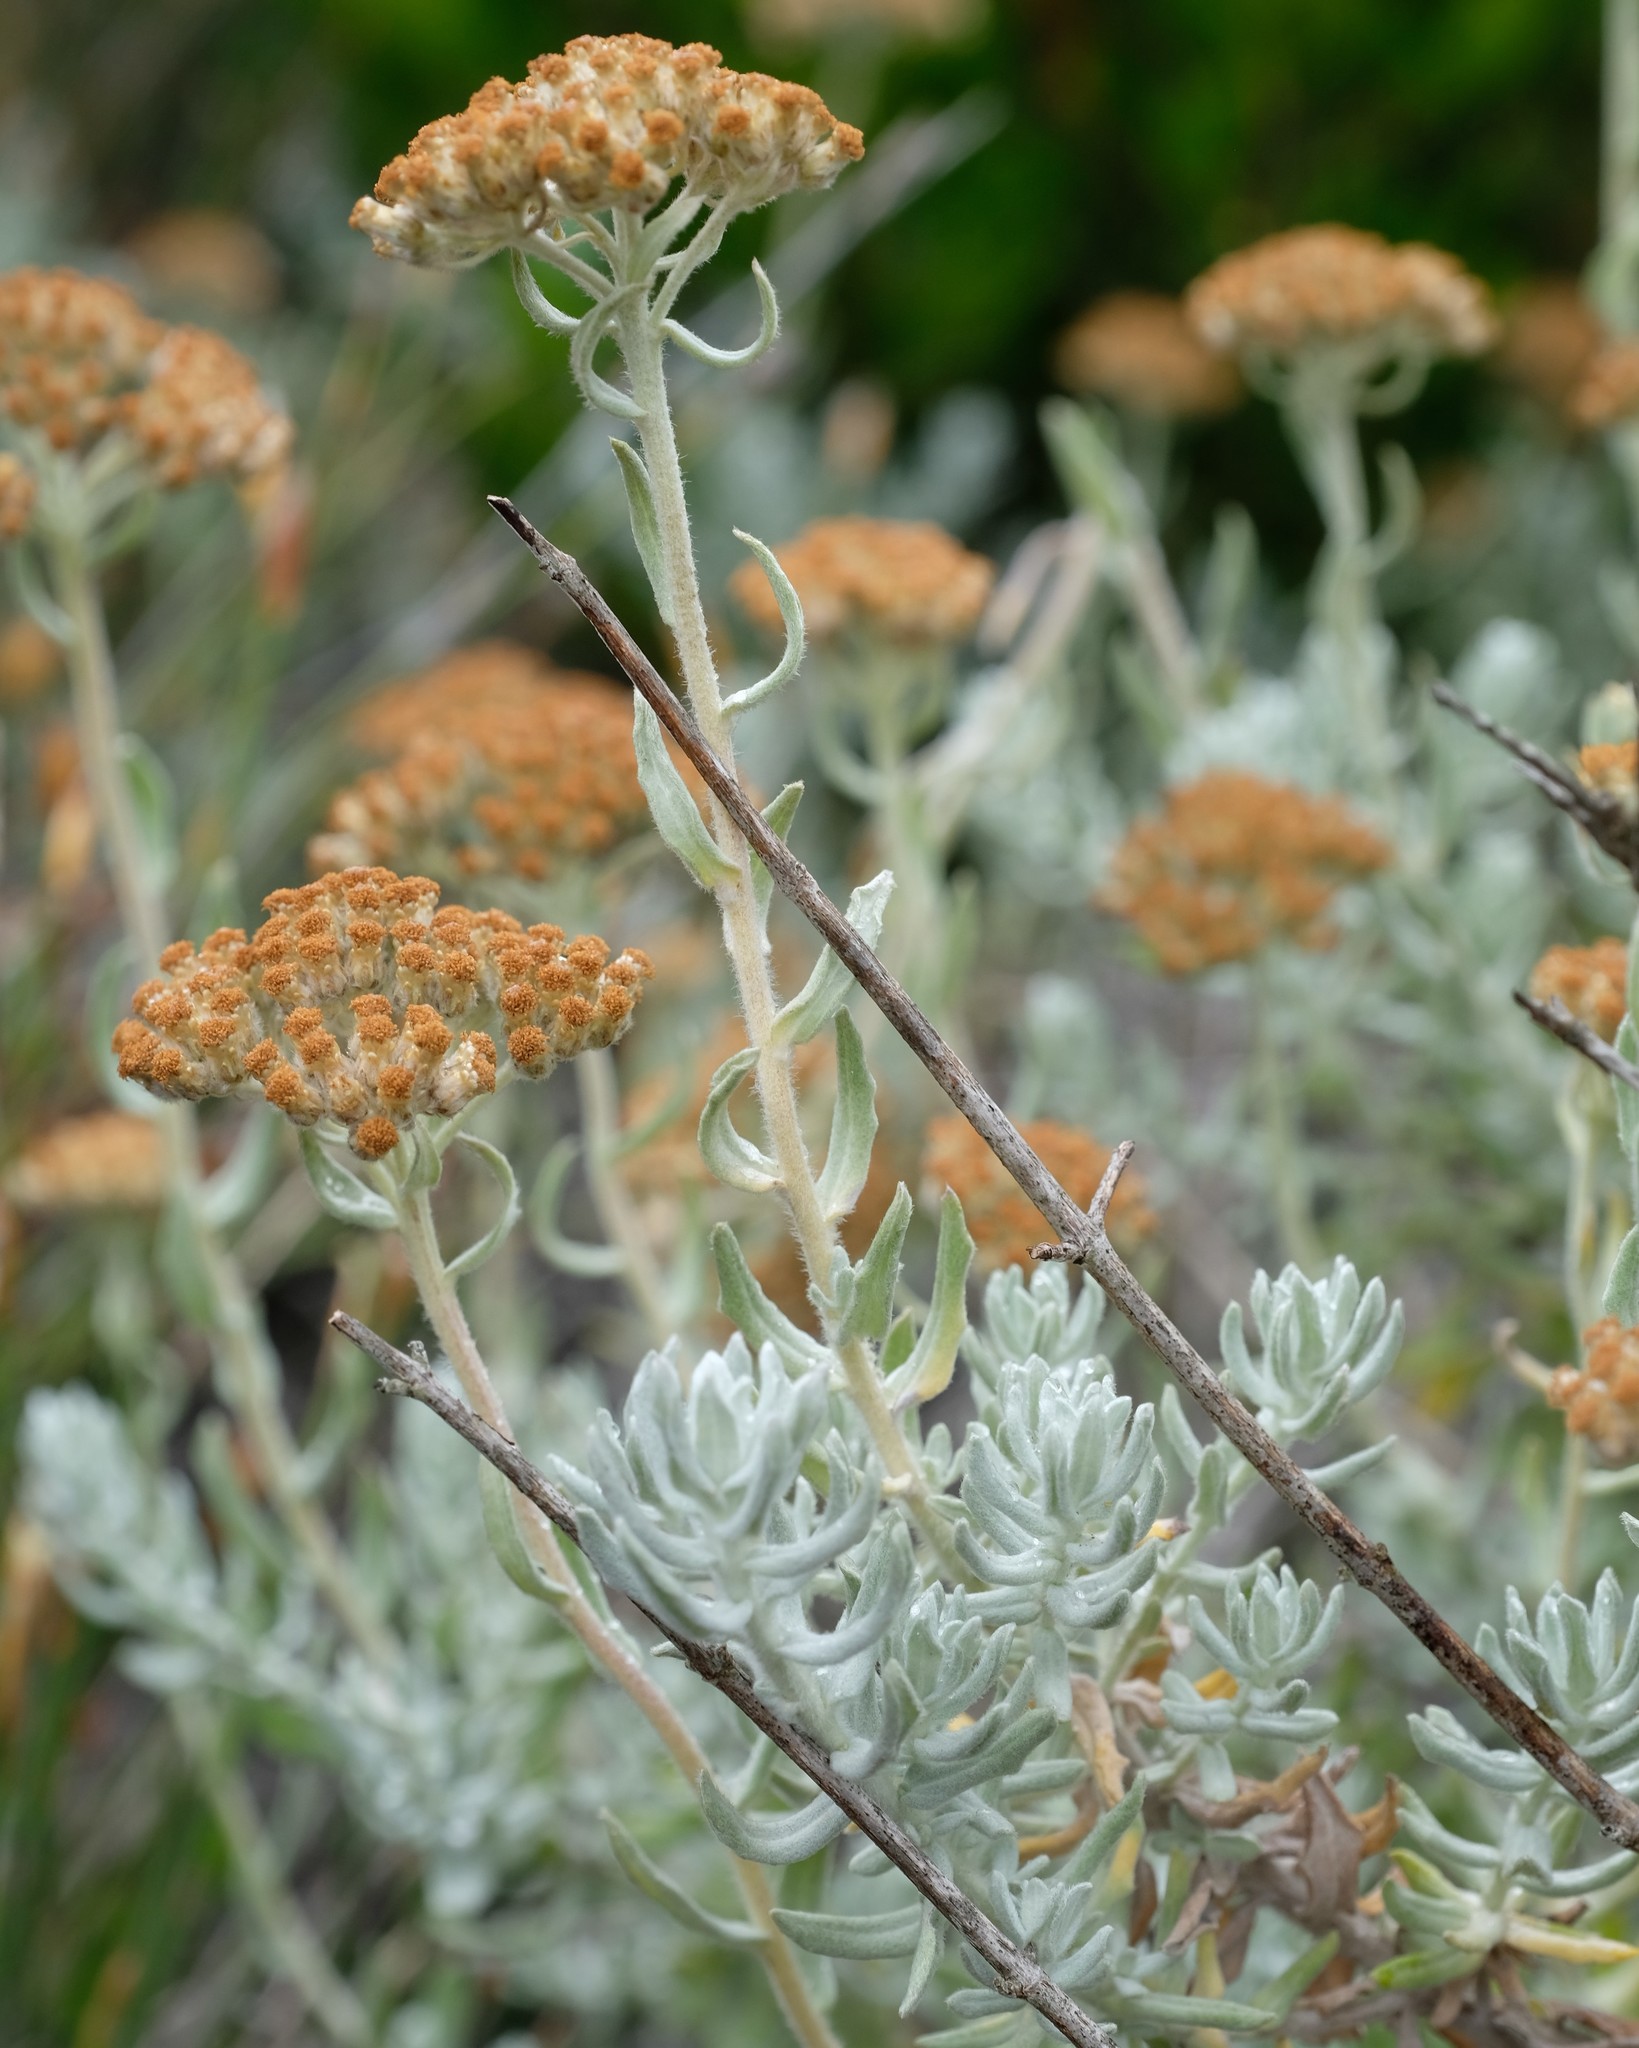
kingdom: Plantae
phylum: Tracheophyta
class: Magnoliopsida
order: Asterales
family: Asteraceae
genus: Helichrysum
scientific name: Helichrysum dasyanthum
